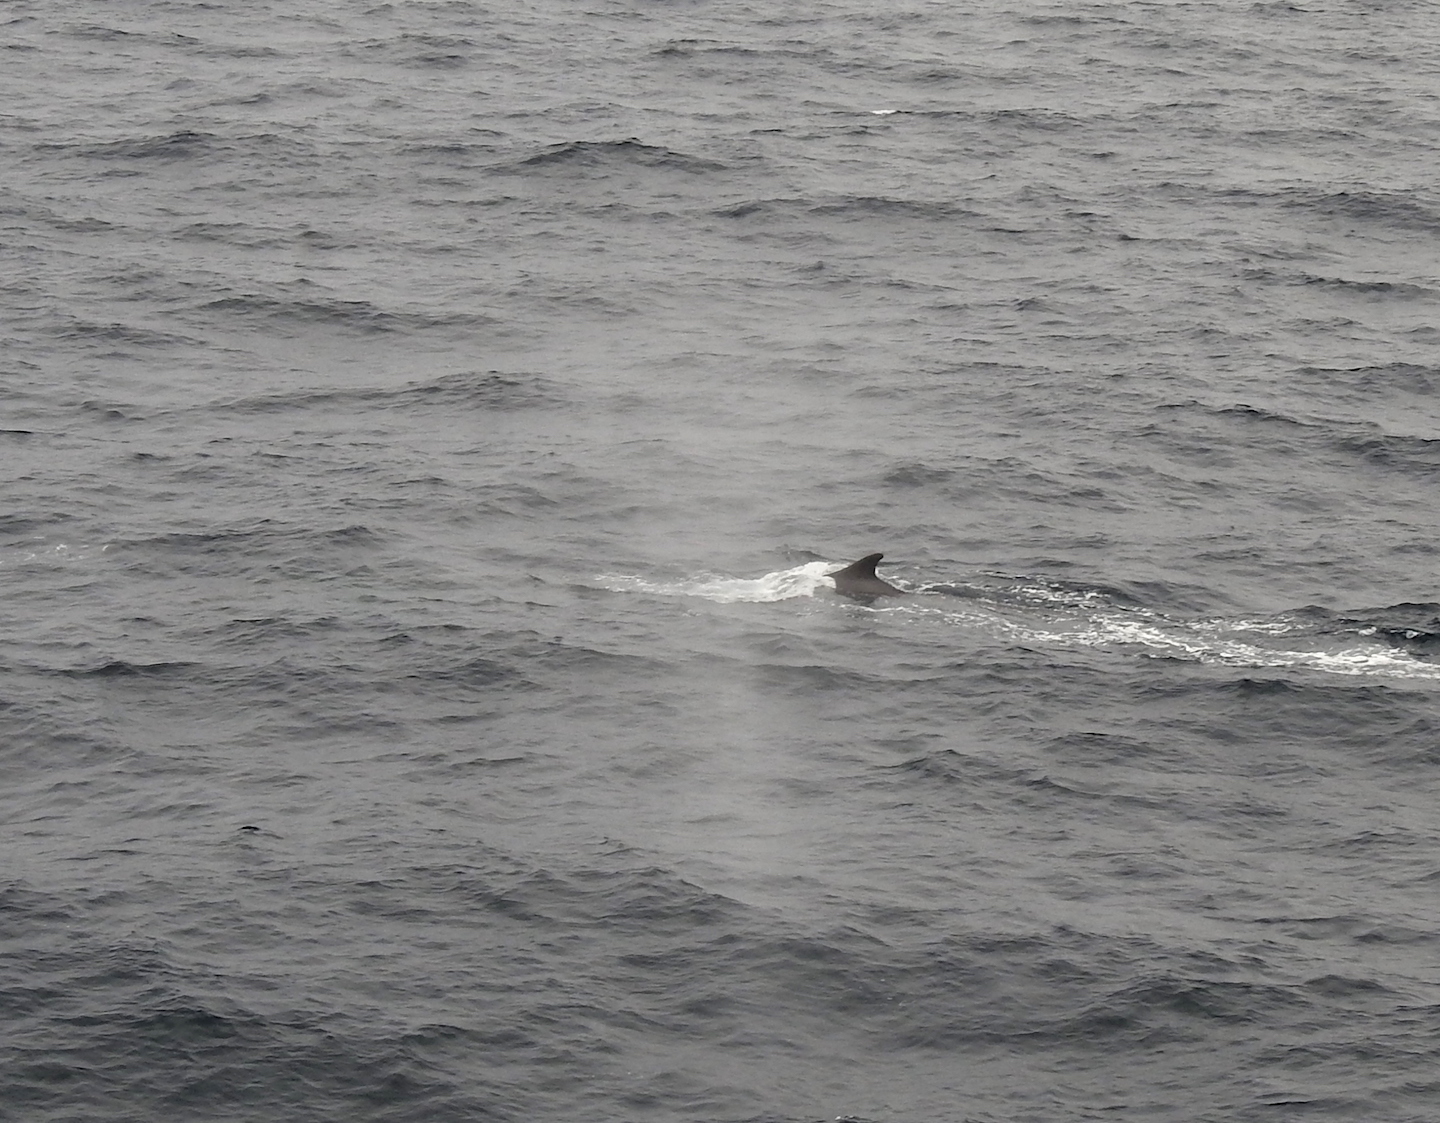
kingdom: Animalia
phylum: Chordata
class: Mammalia
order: Cetacea
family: Balaenopteridae
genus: Balaenoptera
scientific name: Balaenoptera physalus
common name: Fin whale
